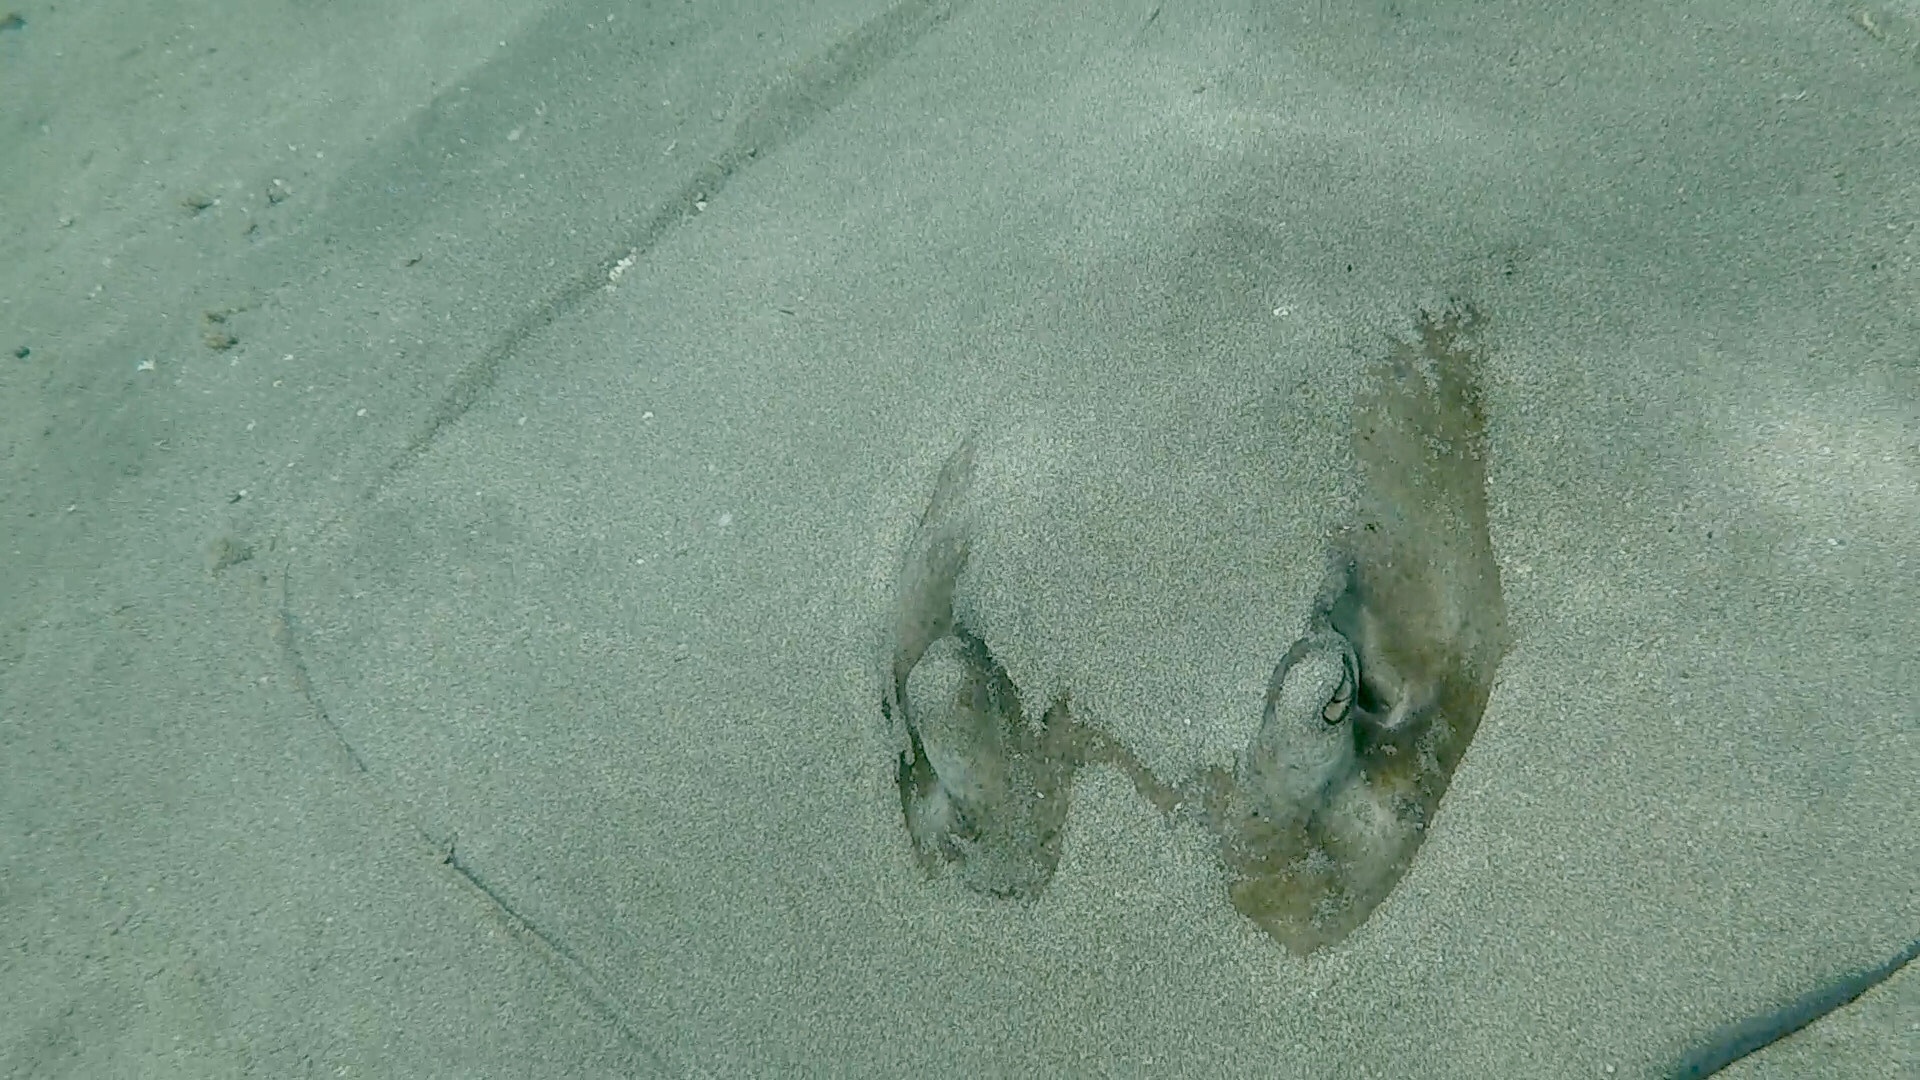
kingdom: Animalia
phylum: Chordata
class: Elasmobranchii
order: Myliobatiformes
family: Dasyatidae
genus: Hypanus
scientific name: Hypanus americanus
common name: Southern stingray
